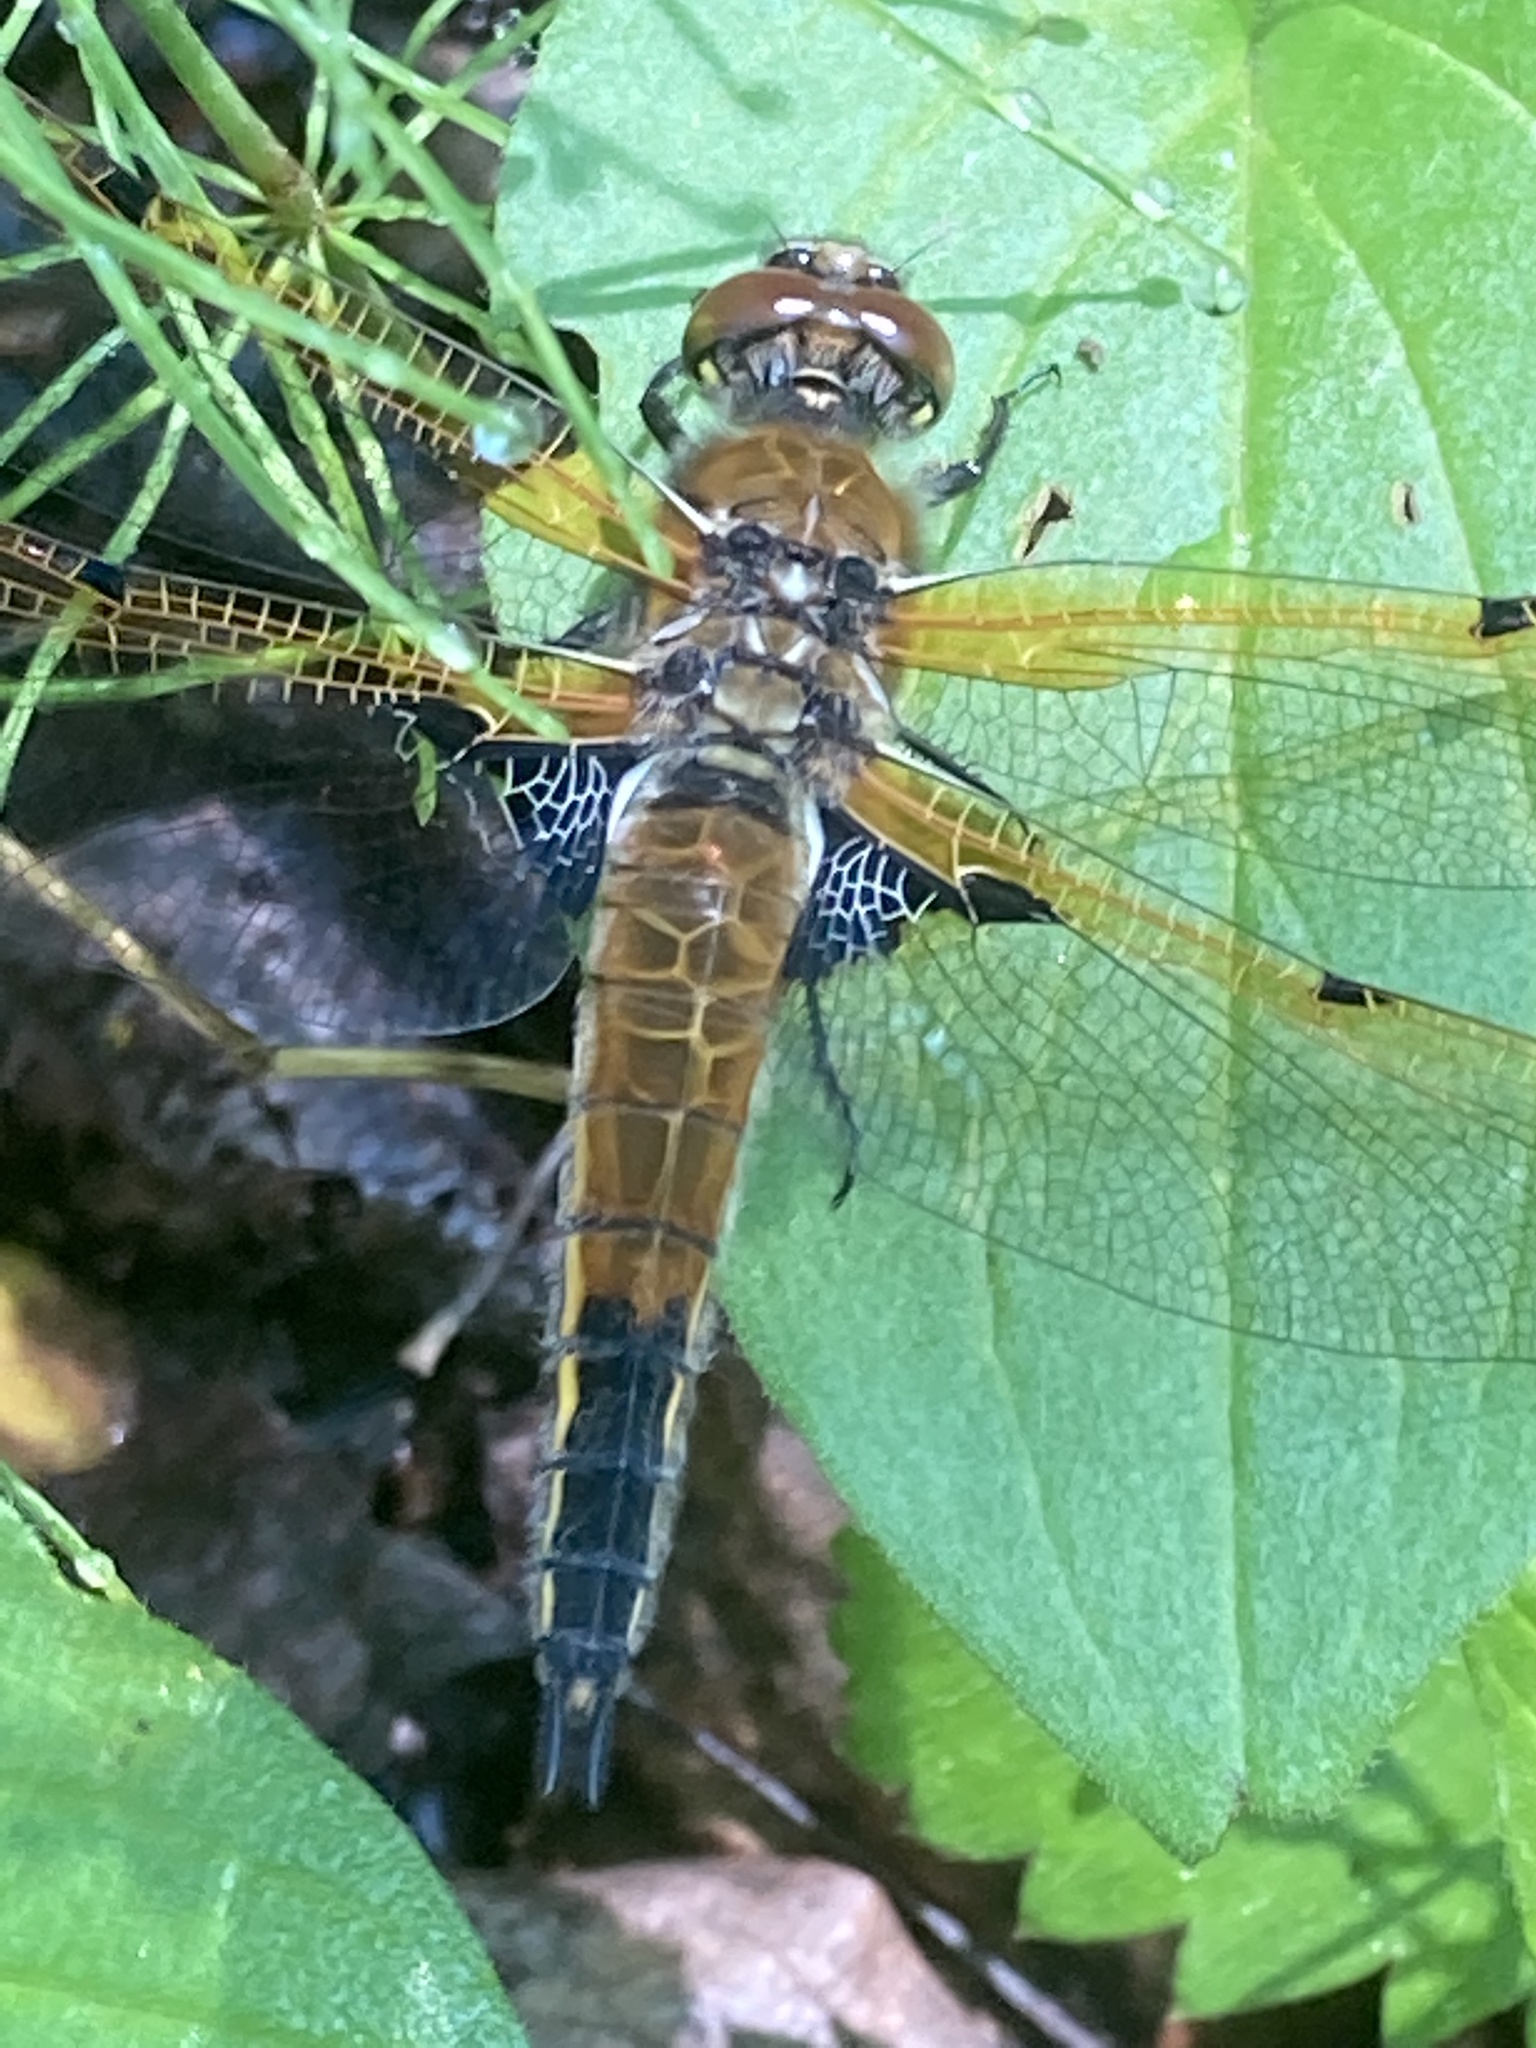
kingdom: Animalia
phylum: Arthropoda
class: Insecta
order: Odonata
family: Libellulidae
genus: Libellula
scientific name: Libellula quadrimaculata
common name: Four-spotted chaser
